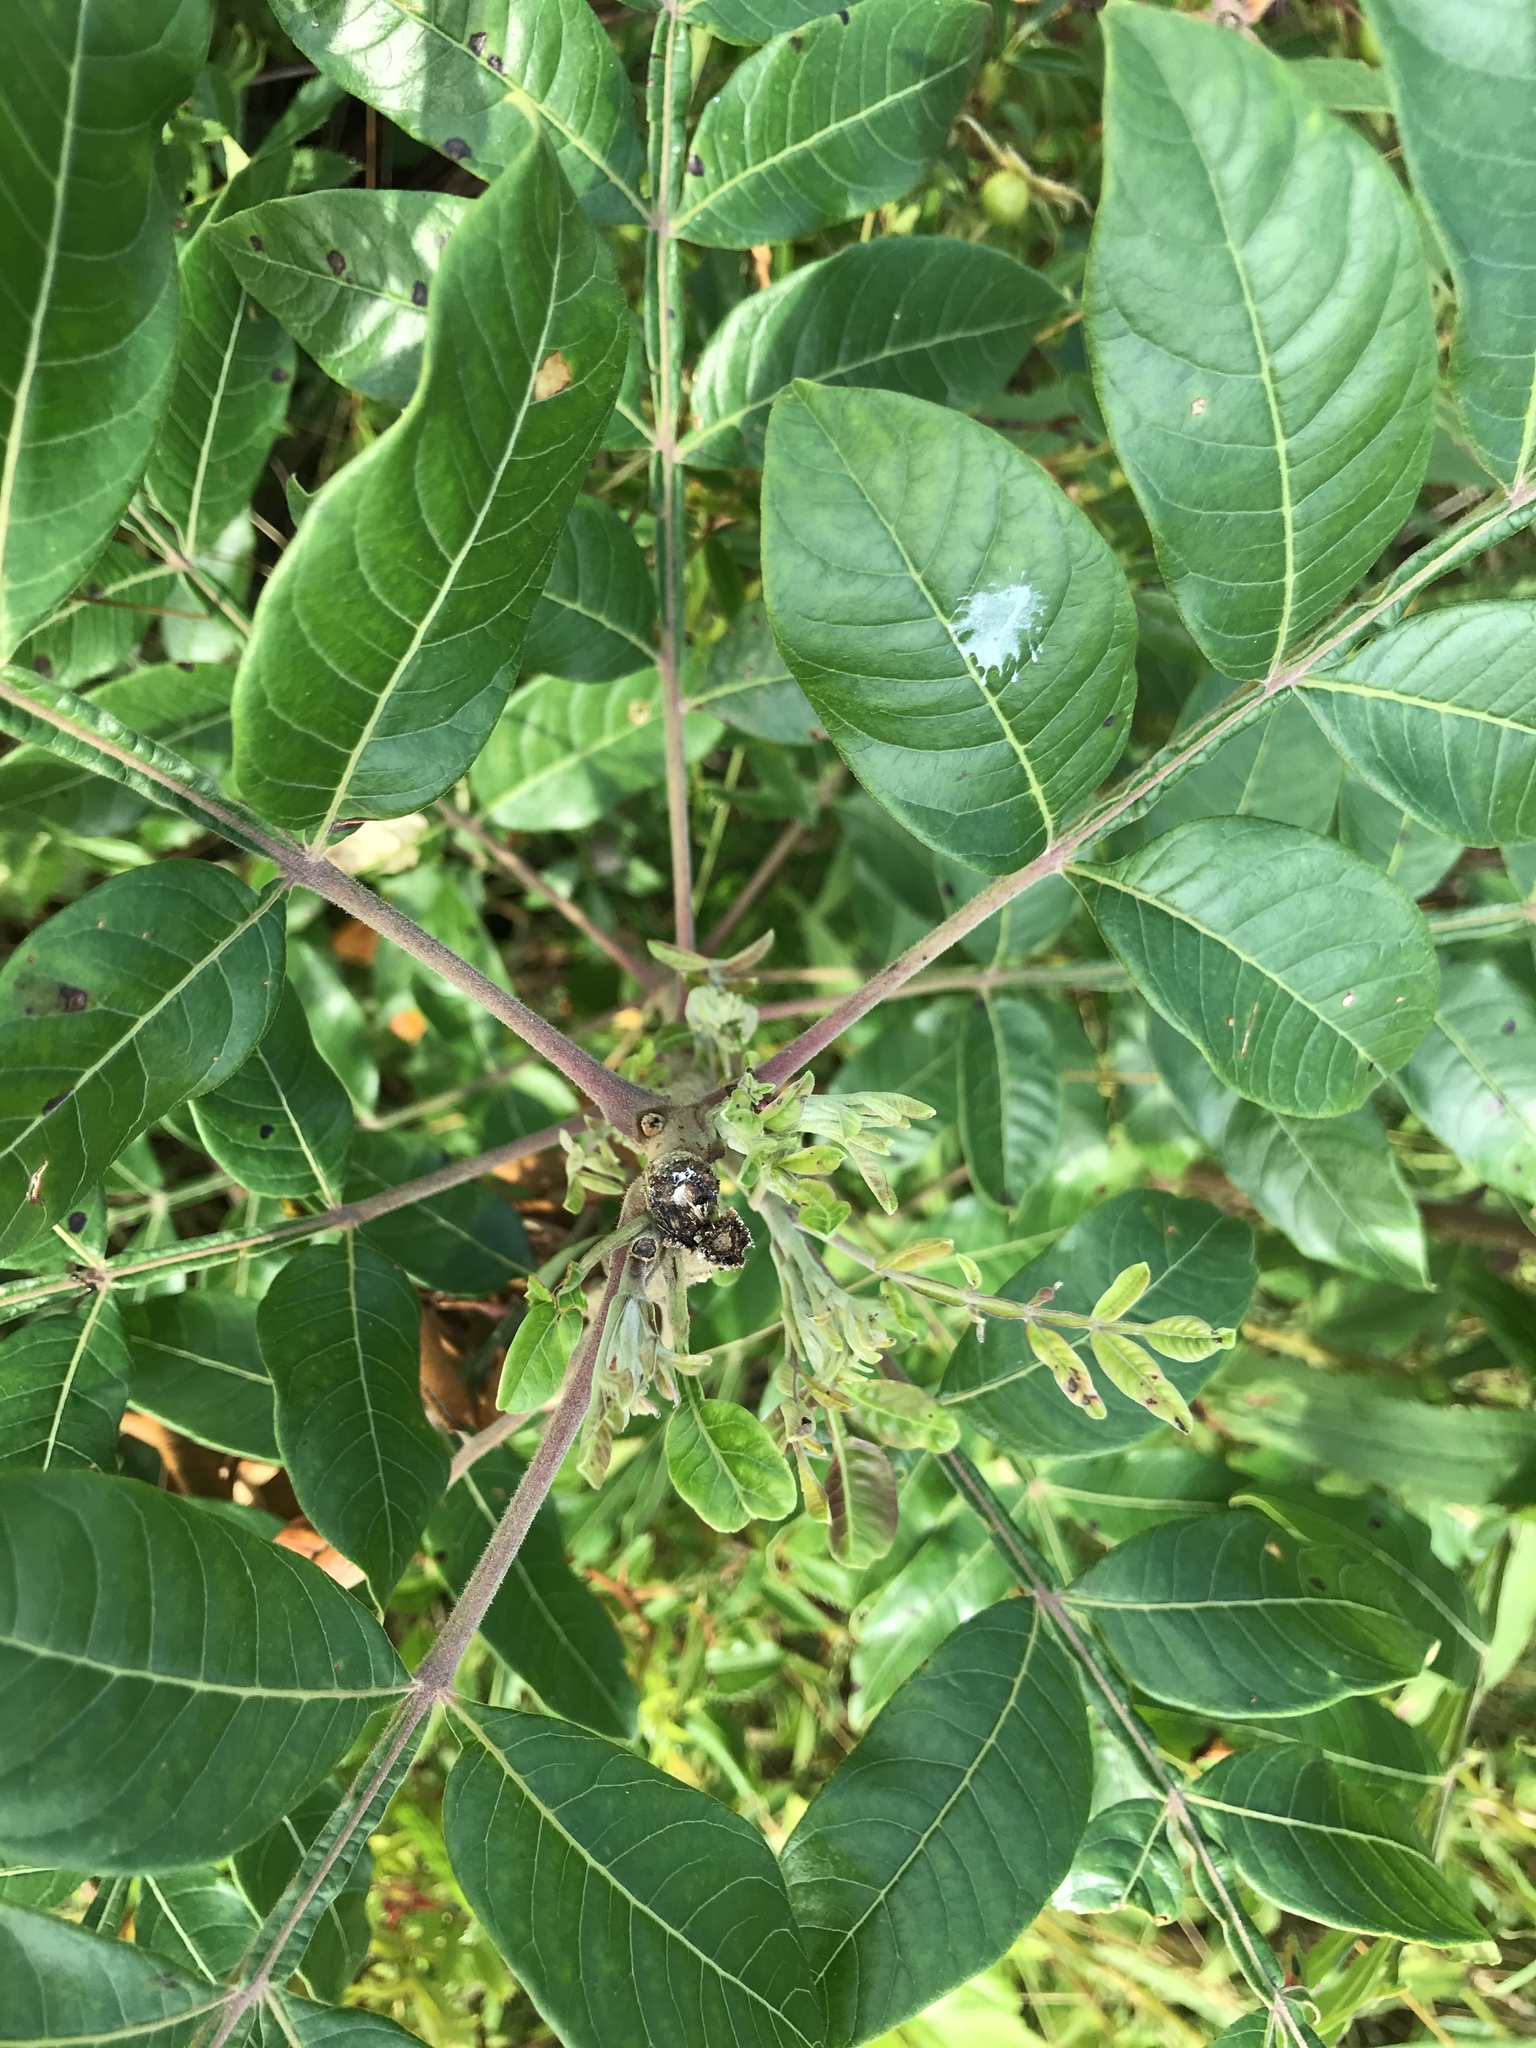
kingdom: Plantae
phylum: Tracheophyta
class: Magnoliopsida
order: Sapindales
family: Anacardiaceae
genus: Rhus
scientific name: Rhus copallina
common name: Shining sumac
